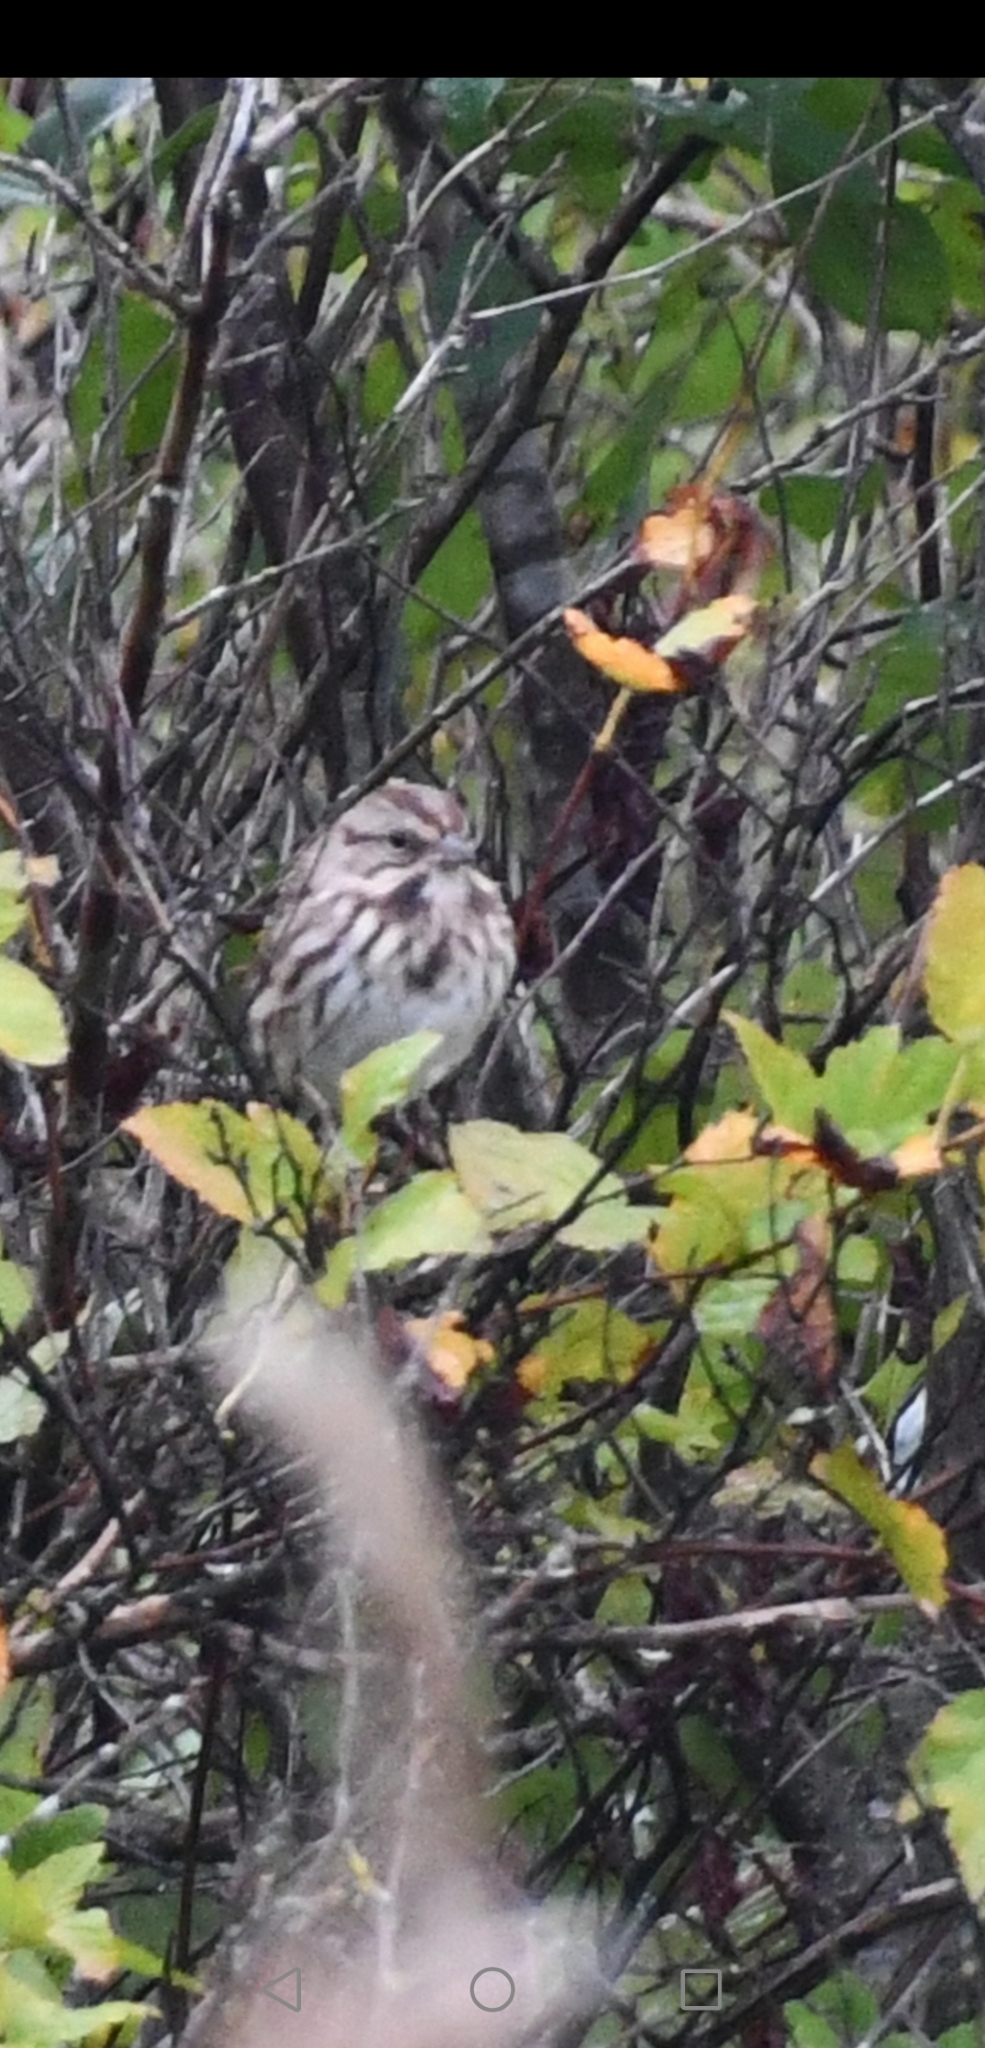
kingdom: Animalia
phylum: Chordata
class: Aves
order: Passeriformes
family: Passerellidae
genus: Melospiza
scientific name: Melospiza melodia
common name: Song sparrow
